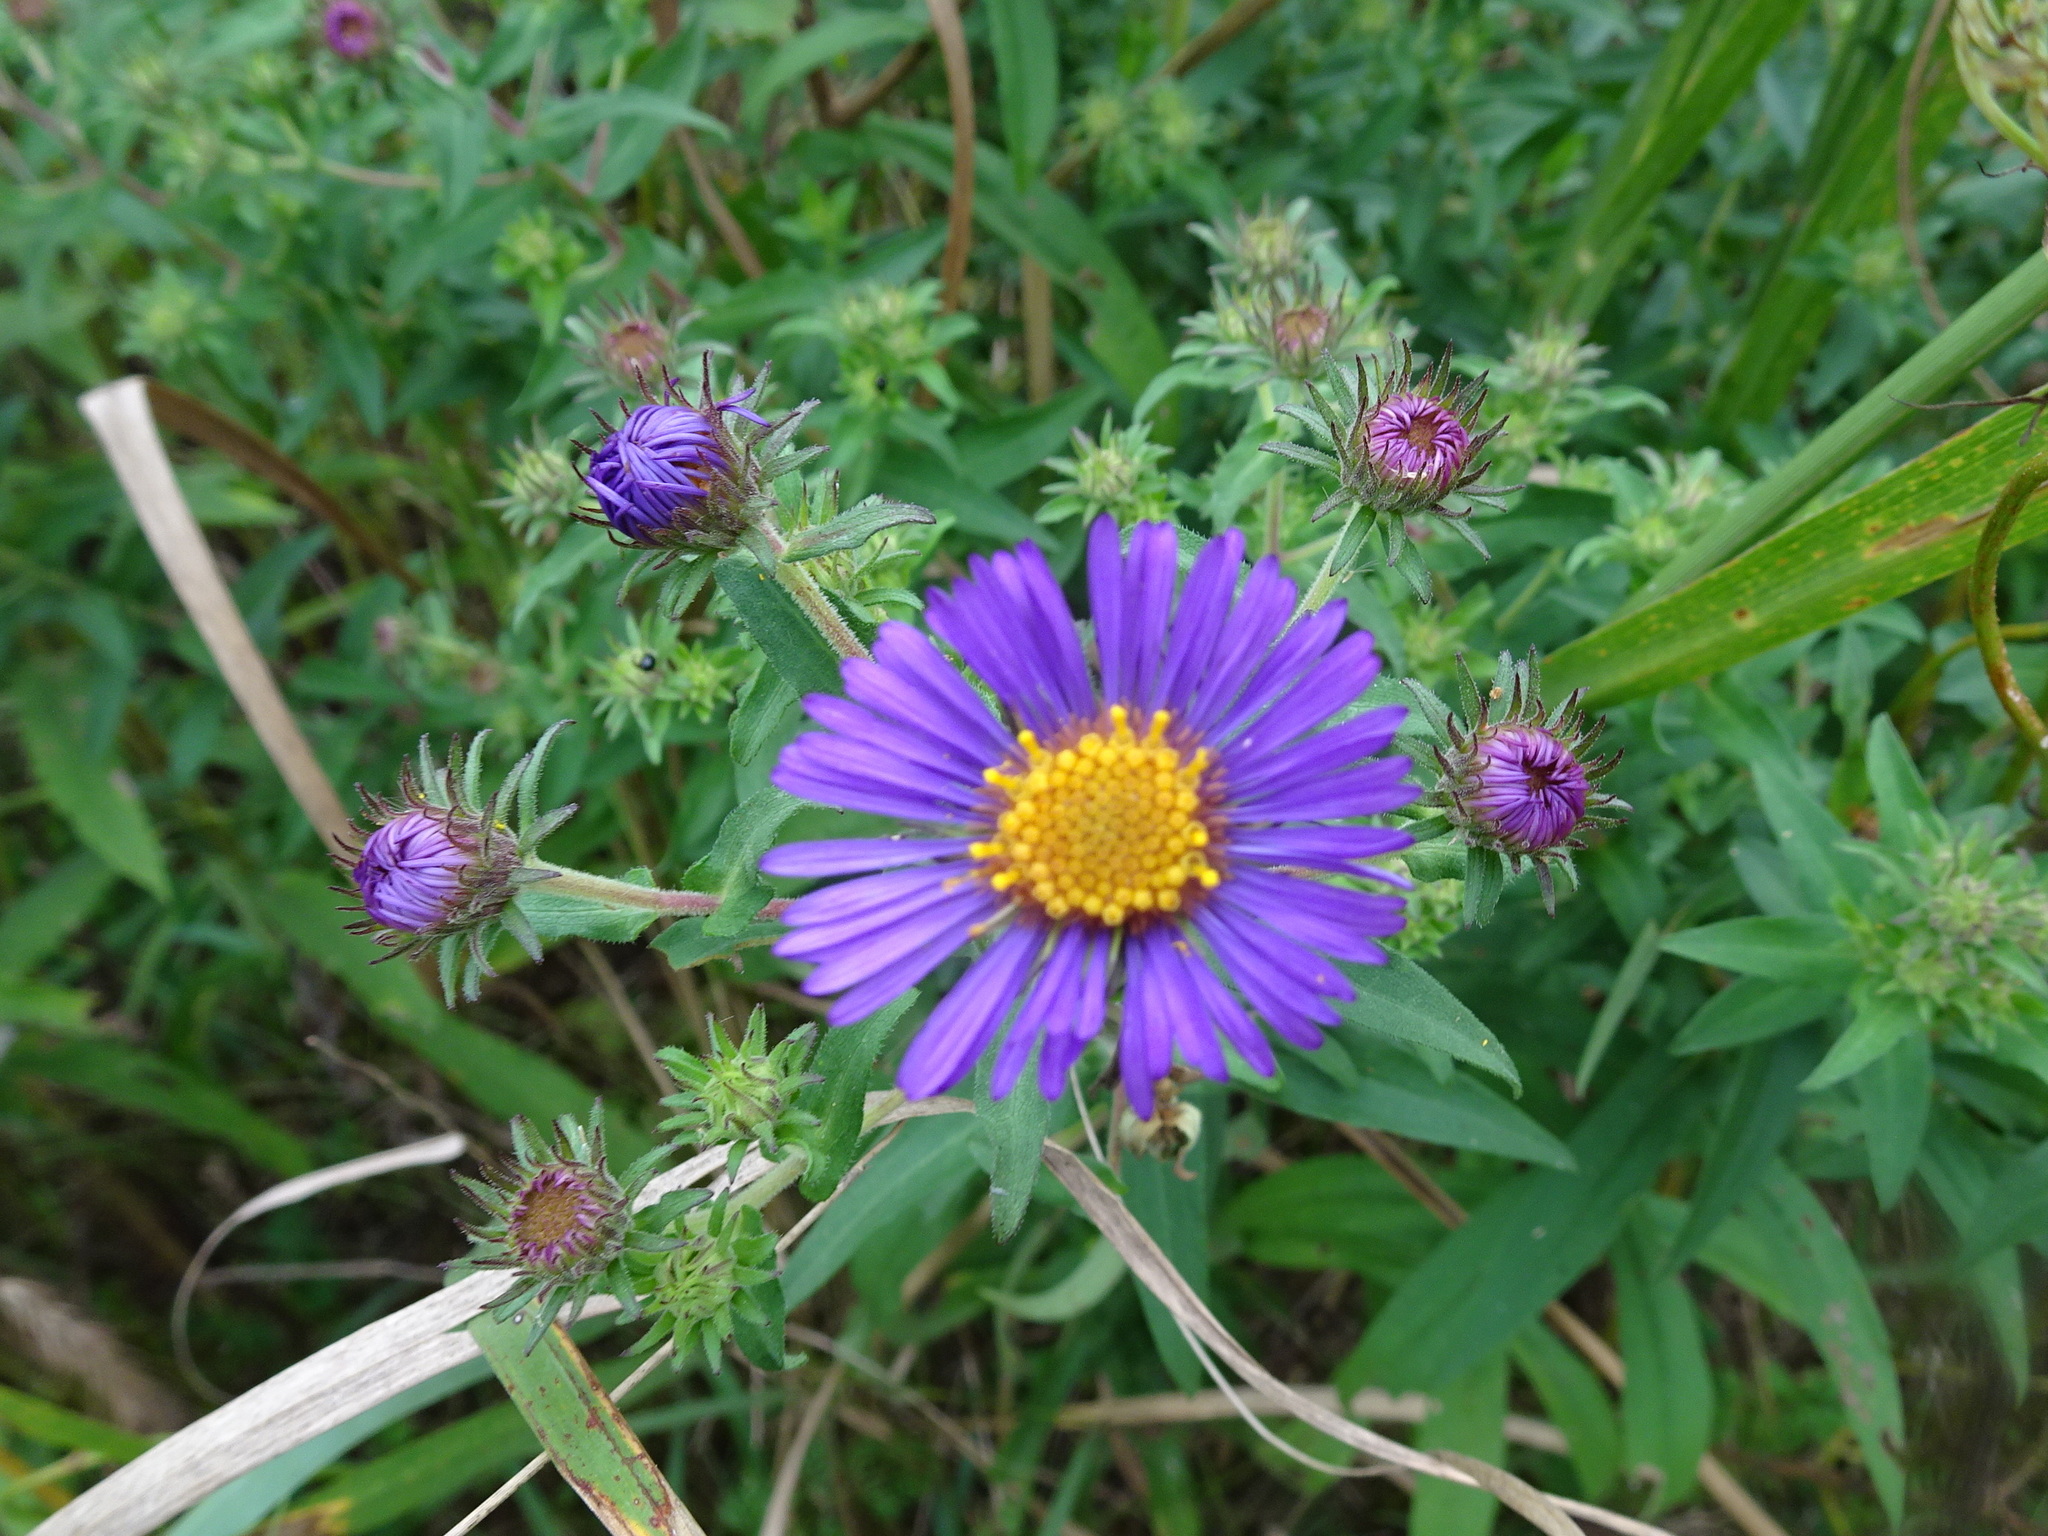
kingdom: Plantae
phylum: Tracheophyta
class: Magnoliopsida
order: Asterales
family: Asteraceae
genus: Symphyotrichum
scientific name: Symphyotrichum novae-angliae
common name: Michaelmas daisy
